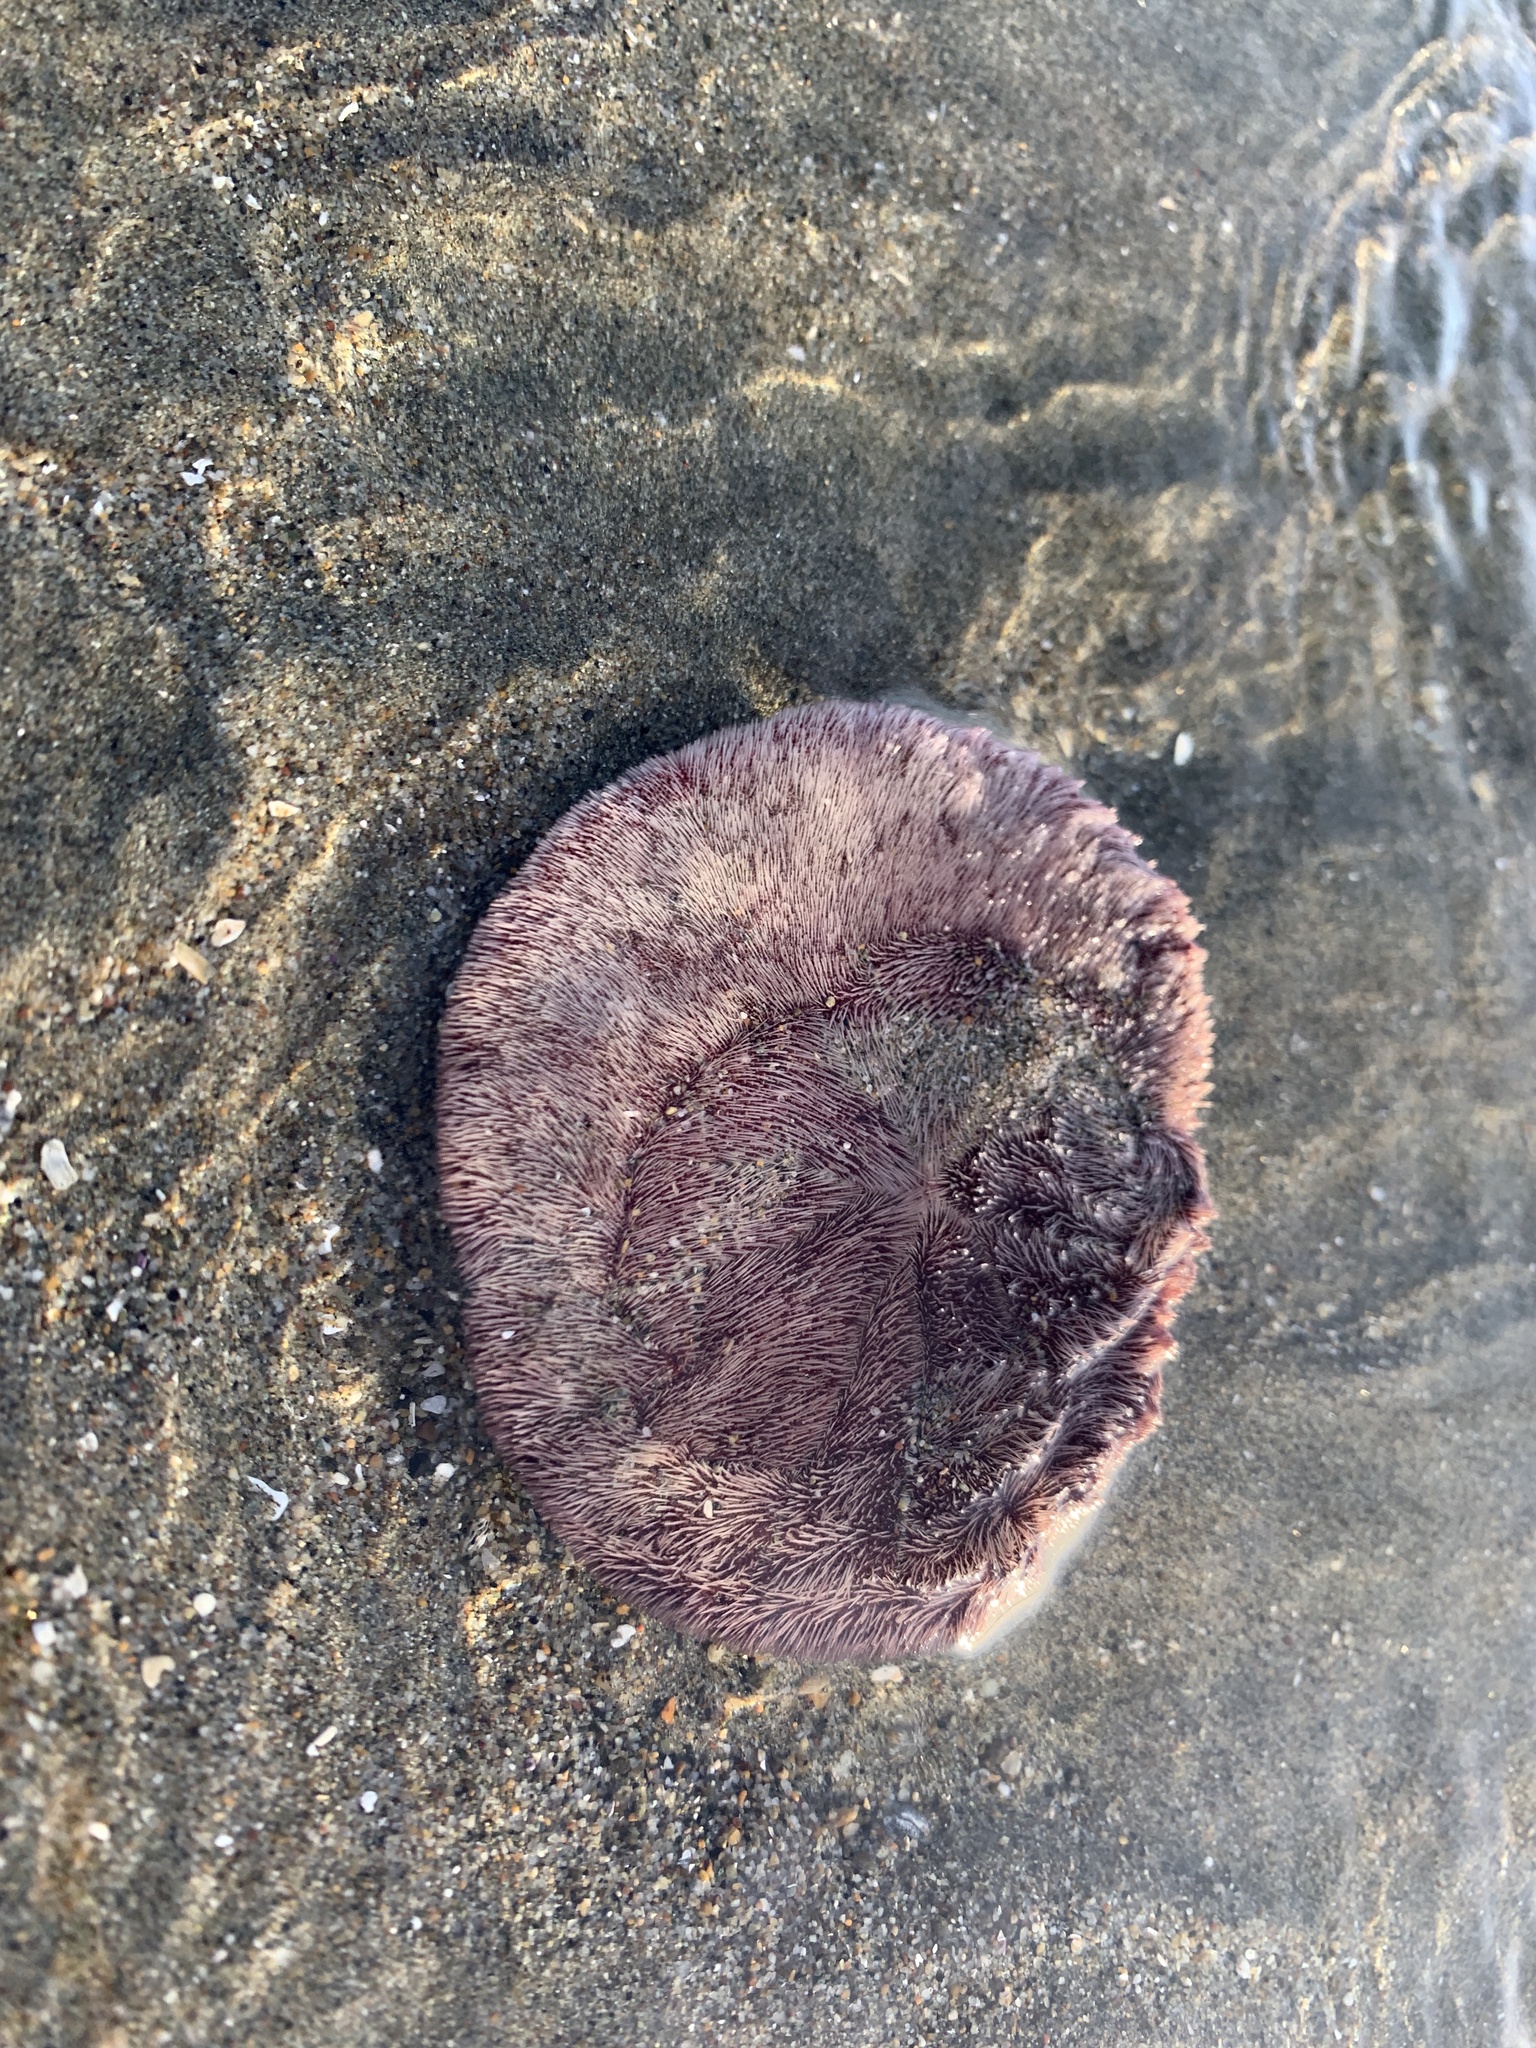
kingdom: Animalia
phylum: Echinodermata
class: Echinoidea
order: Echinolampadacea
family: Dendrasteridae
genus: Dendraster
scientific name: Dendraster excentricus
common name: Eccentric sand dollar sea urchin
